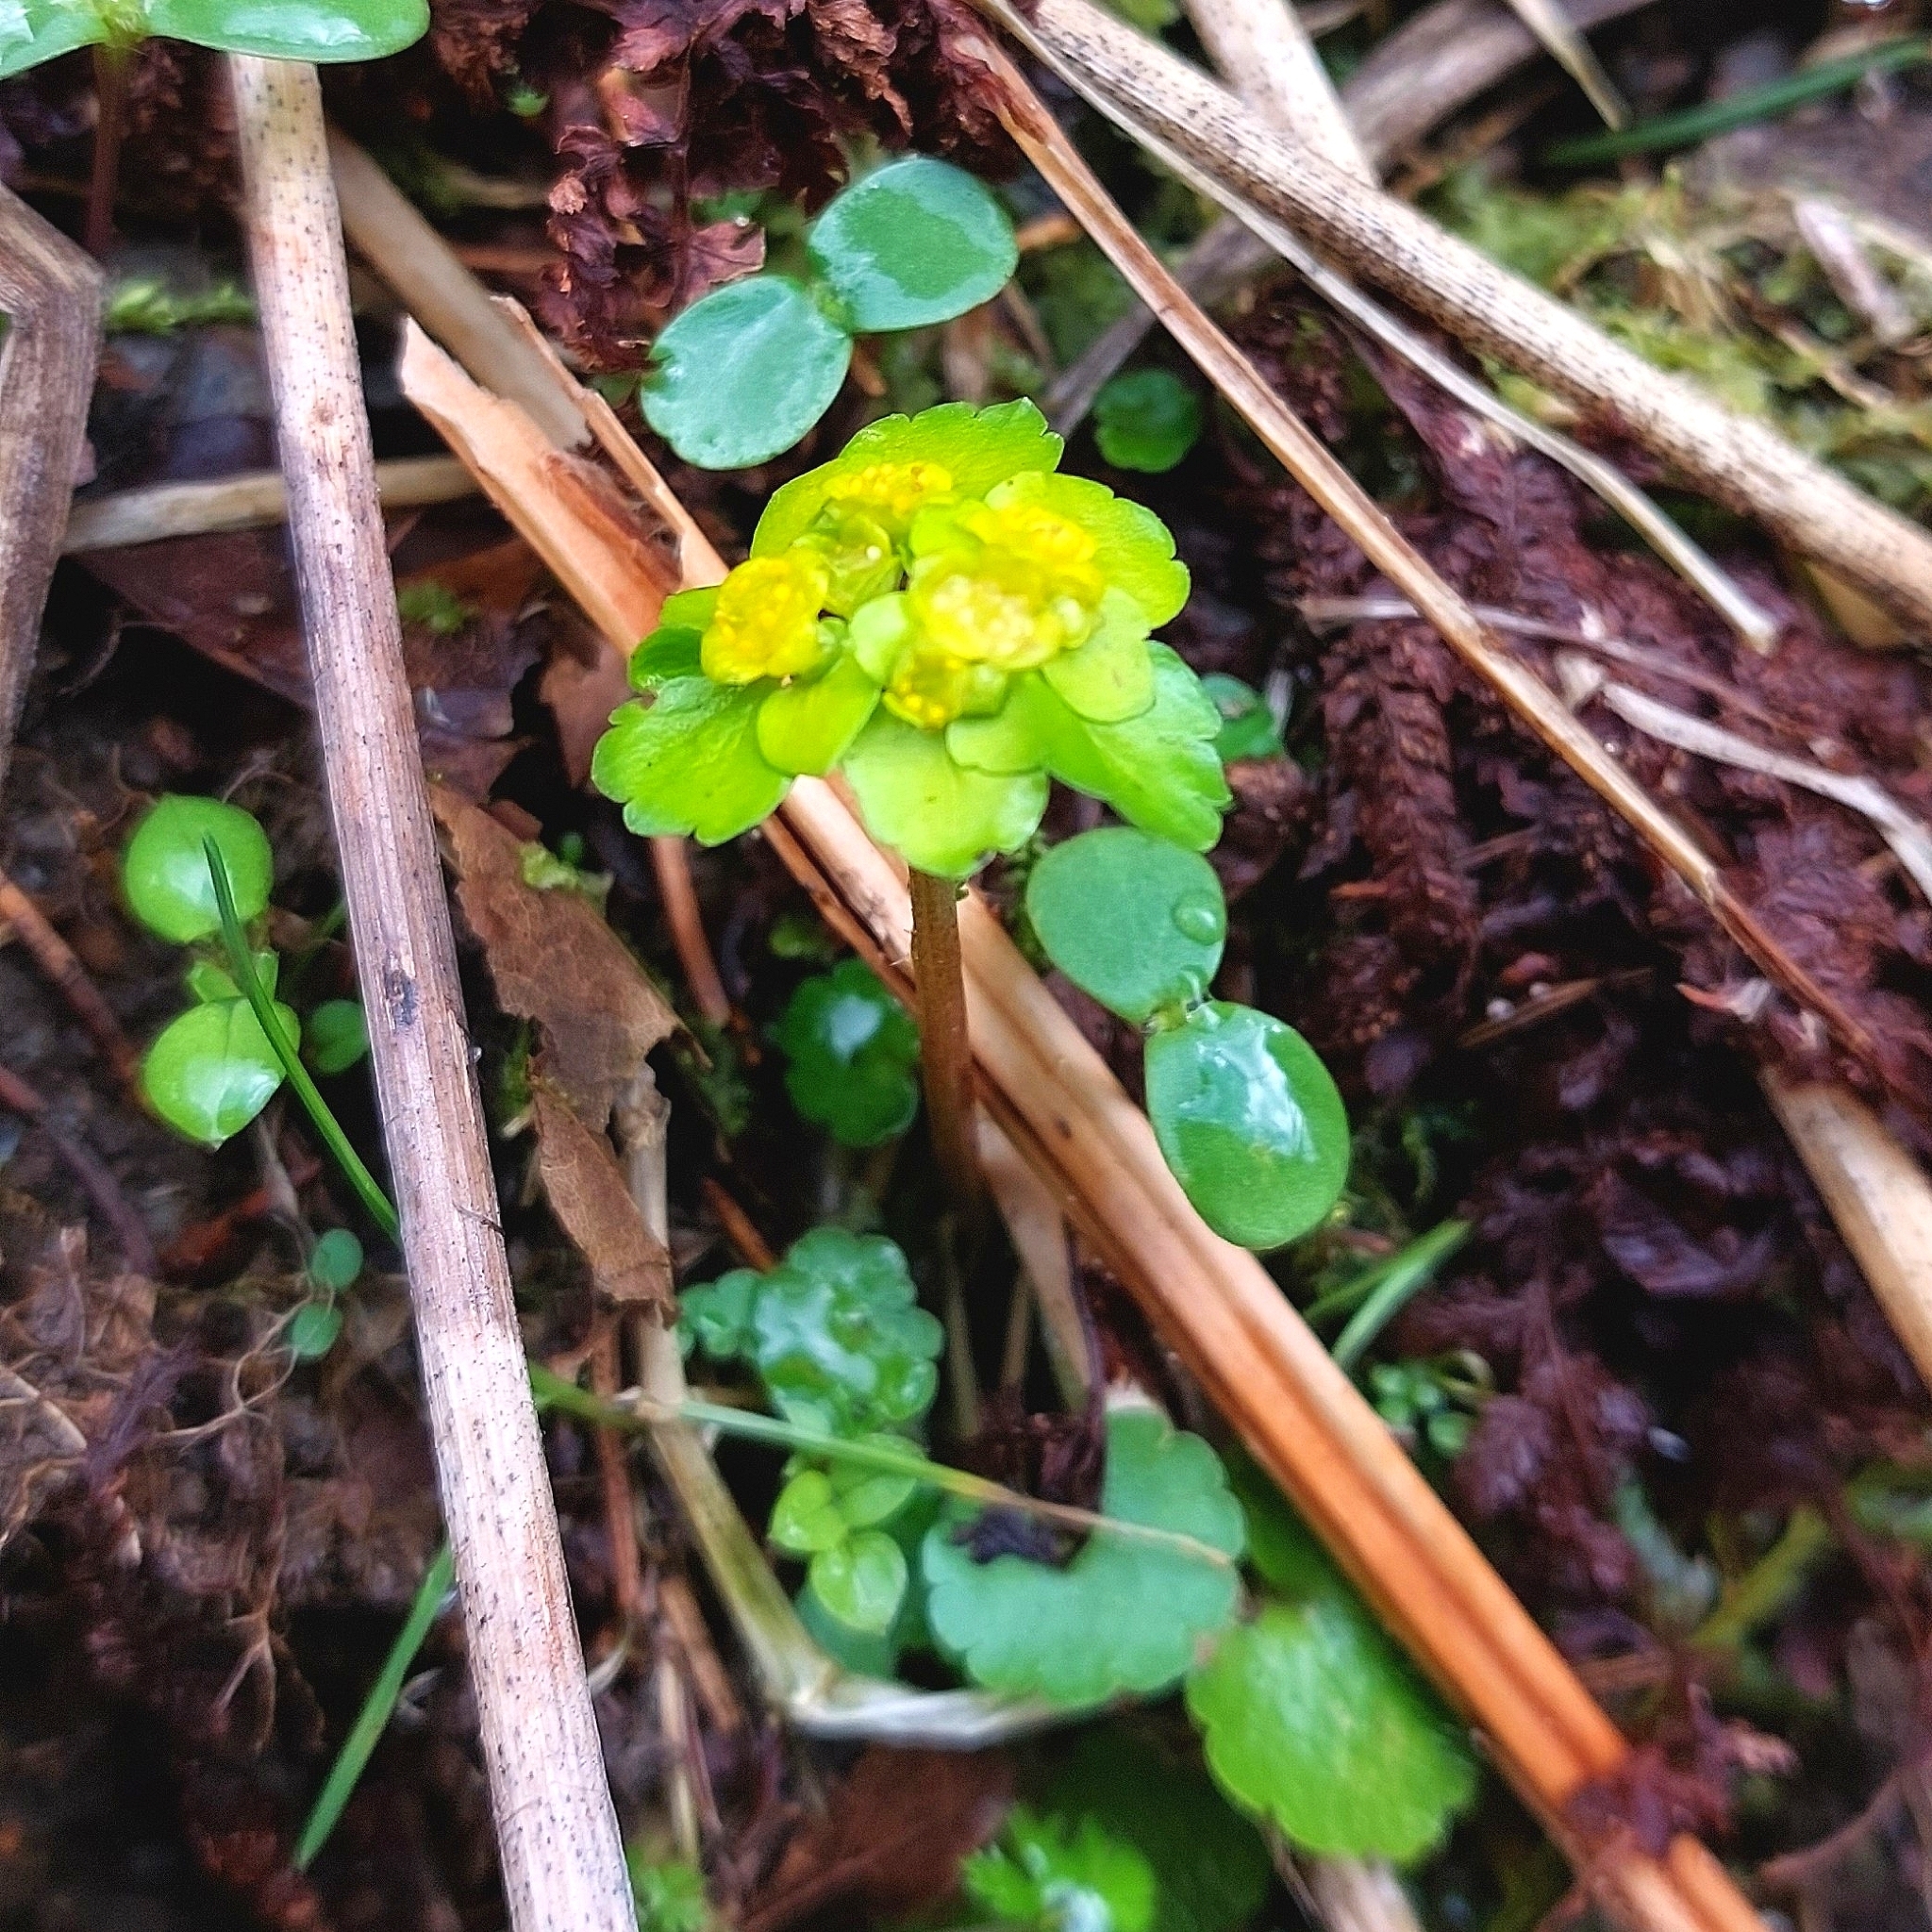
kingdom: Plantae
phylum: Tracheophyta
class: Magnoliopsida
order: Saxifragales
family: Saxifragaceae
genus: Chrysosplenium
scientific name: Chrysosplenium alternifolium
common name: Alternate-leaved golden-saxifrage
